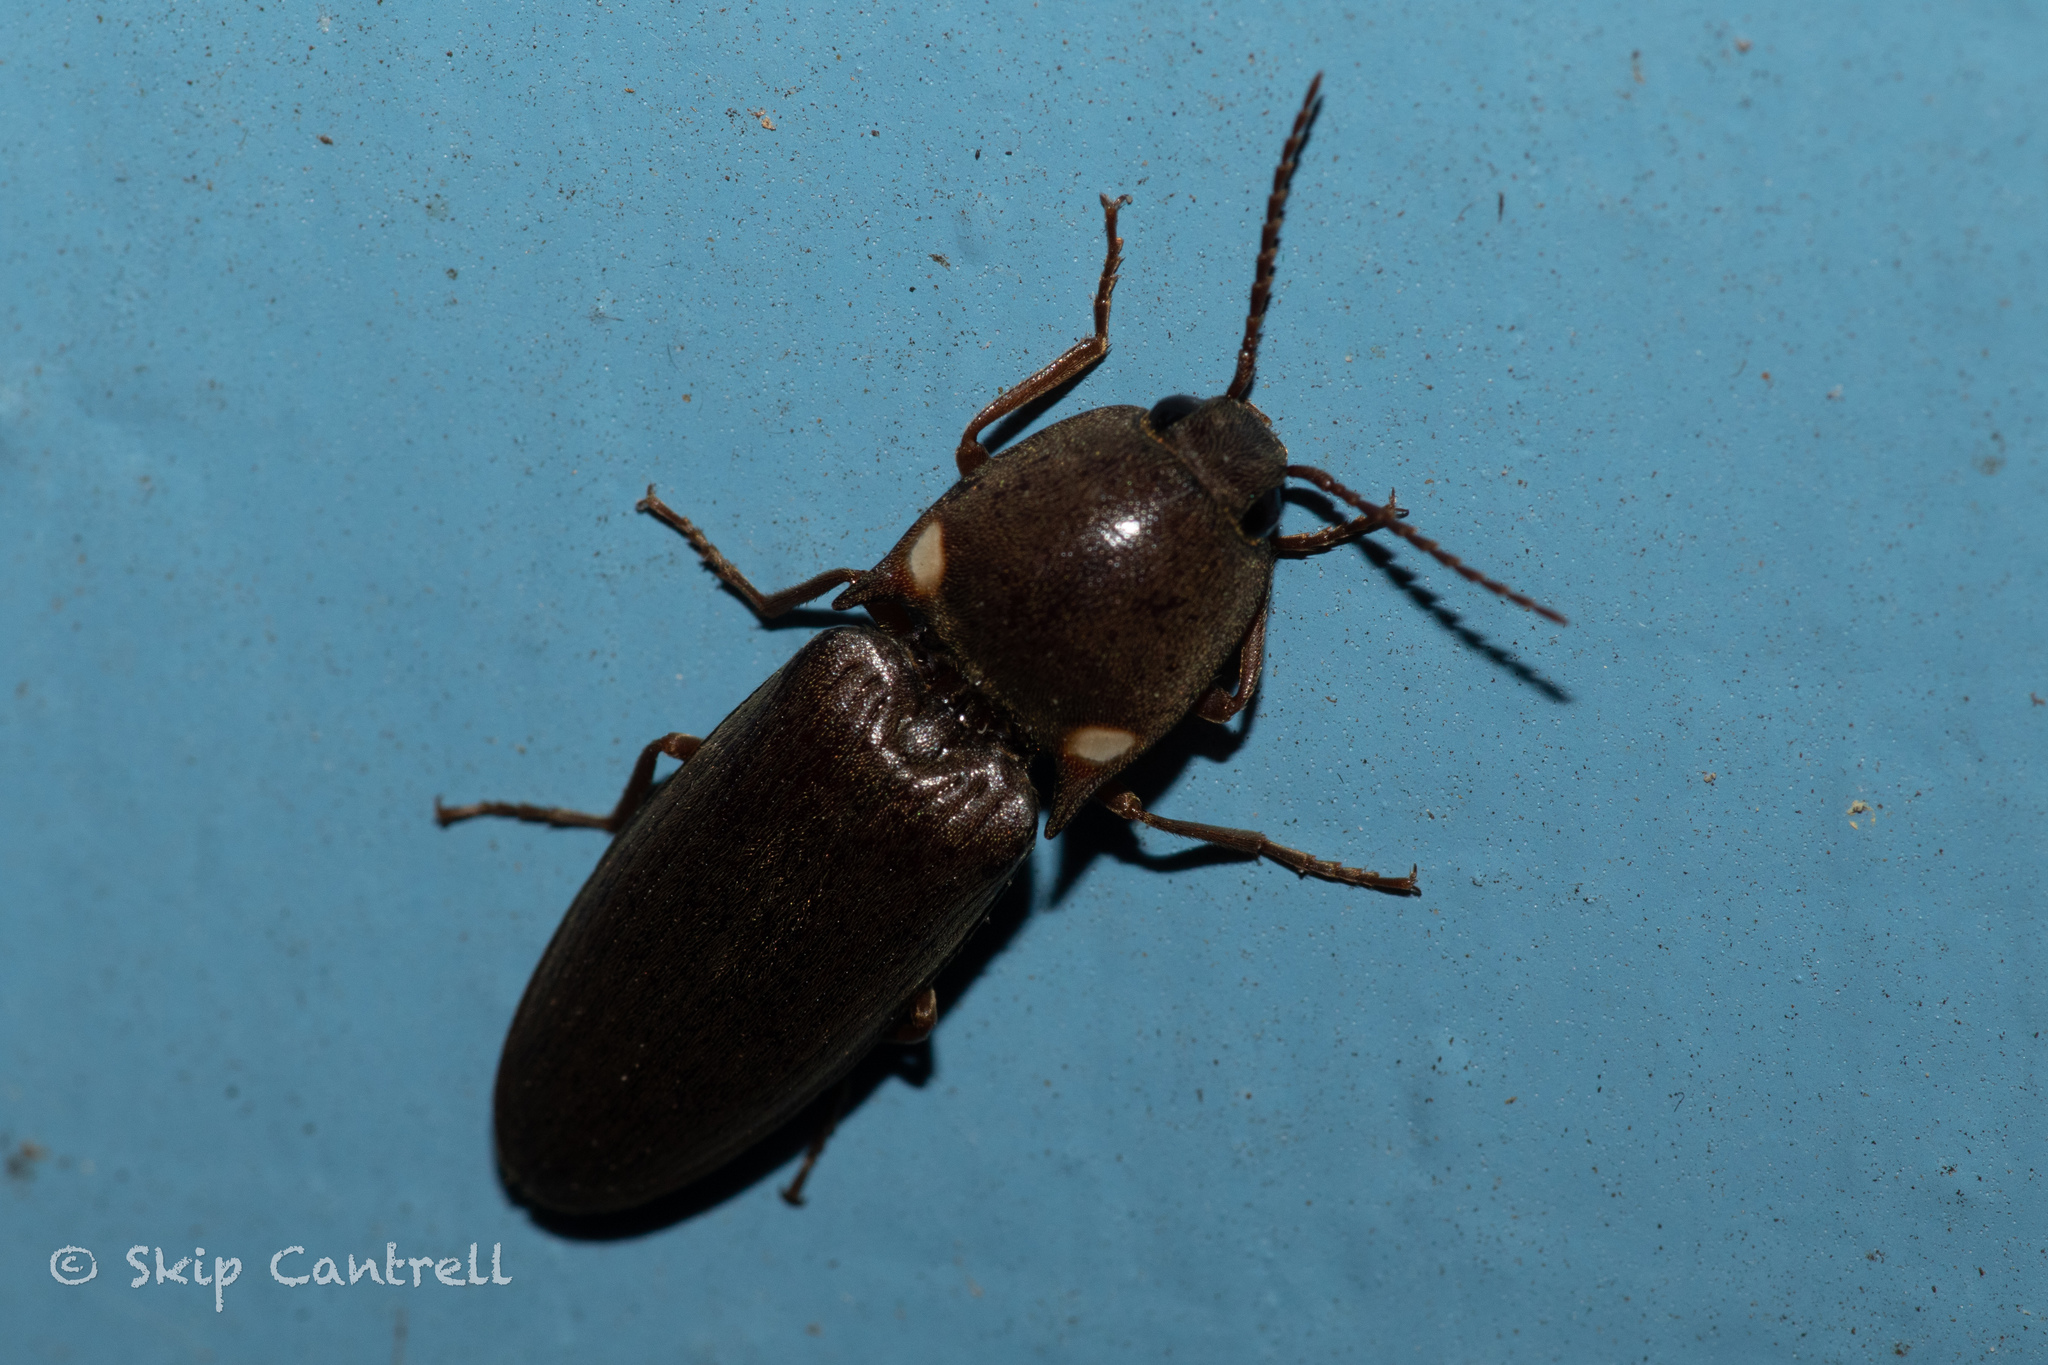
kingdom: Animalia
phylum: Arthropoda
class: Insecta
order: Coleoptera
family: Elateridae
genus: Deilelater
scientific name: Deilelater
